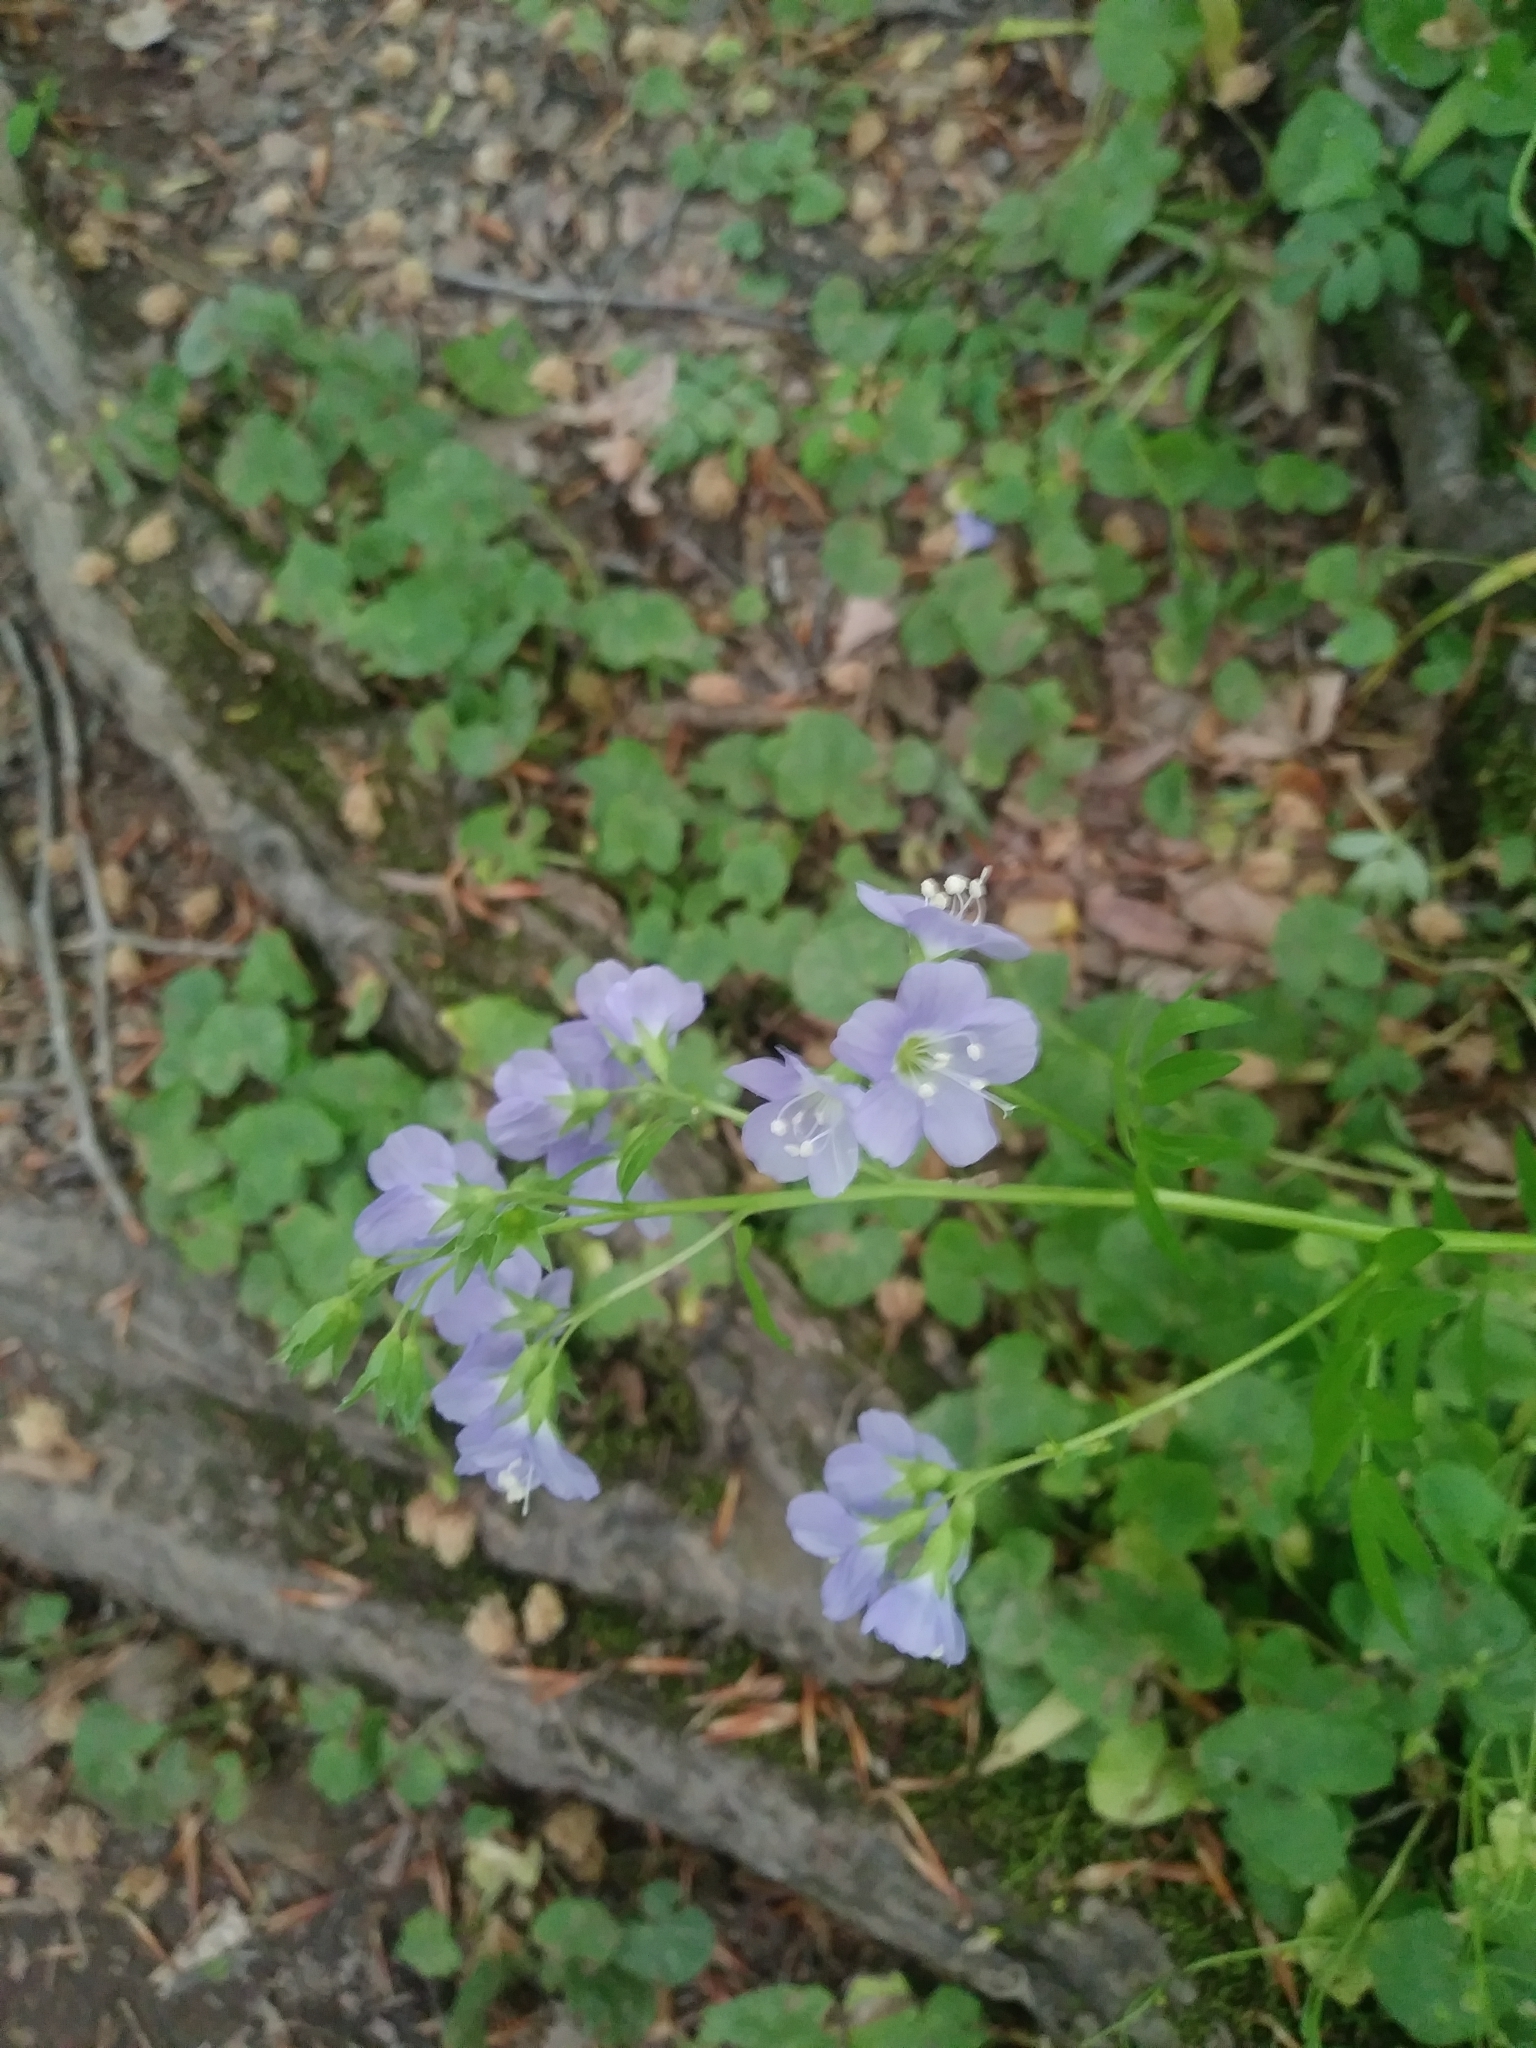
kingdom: Plantae
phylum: Tracheophyta
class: Magnoliopsida
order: Ericales
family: Polemoniaceae
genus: Polemonium
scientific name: Polemonium reptans
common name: Creeping jacob's-ladder
